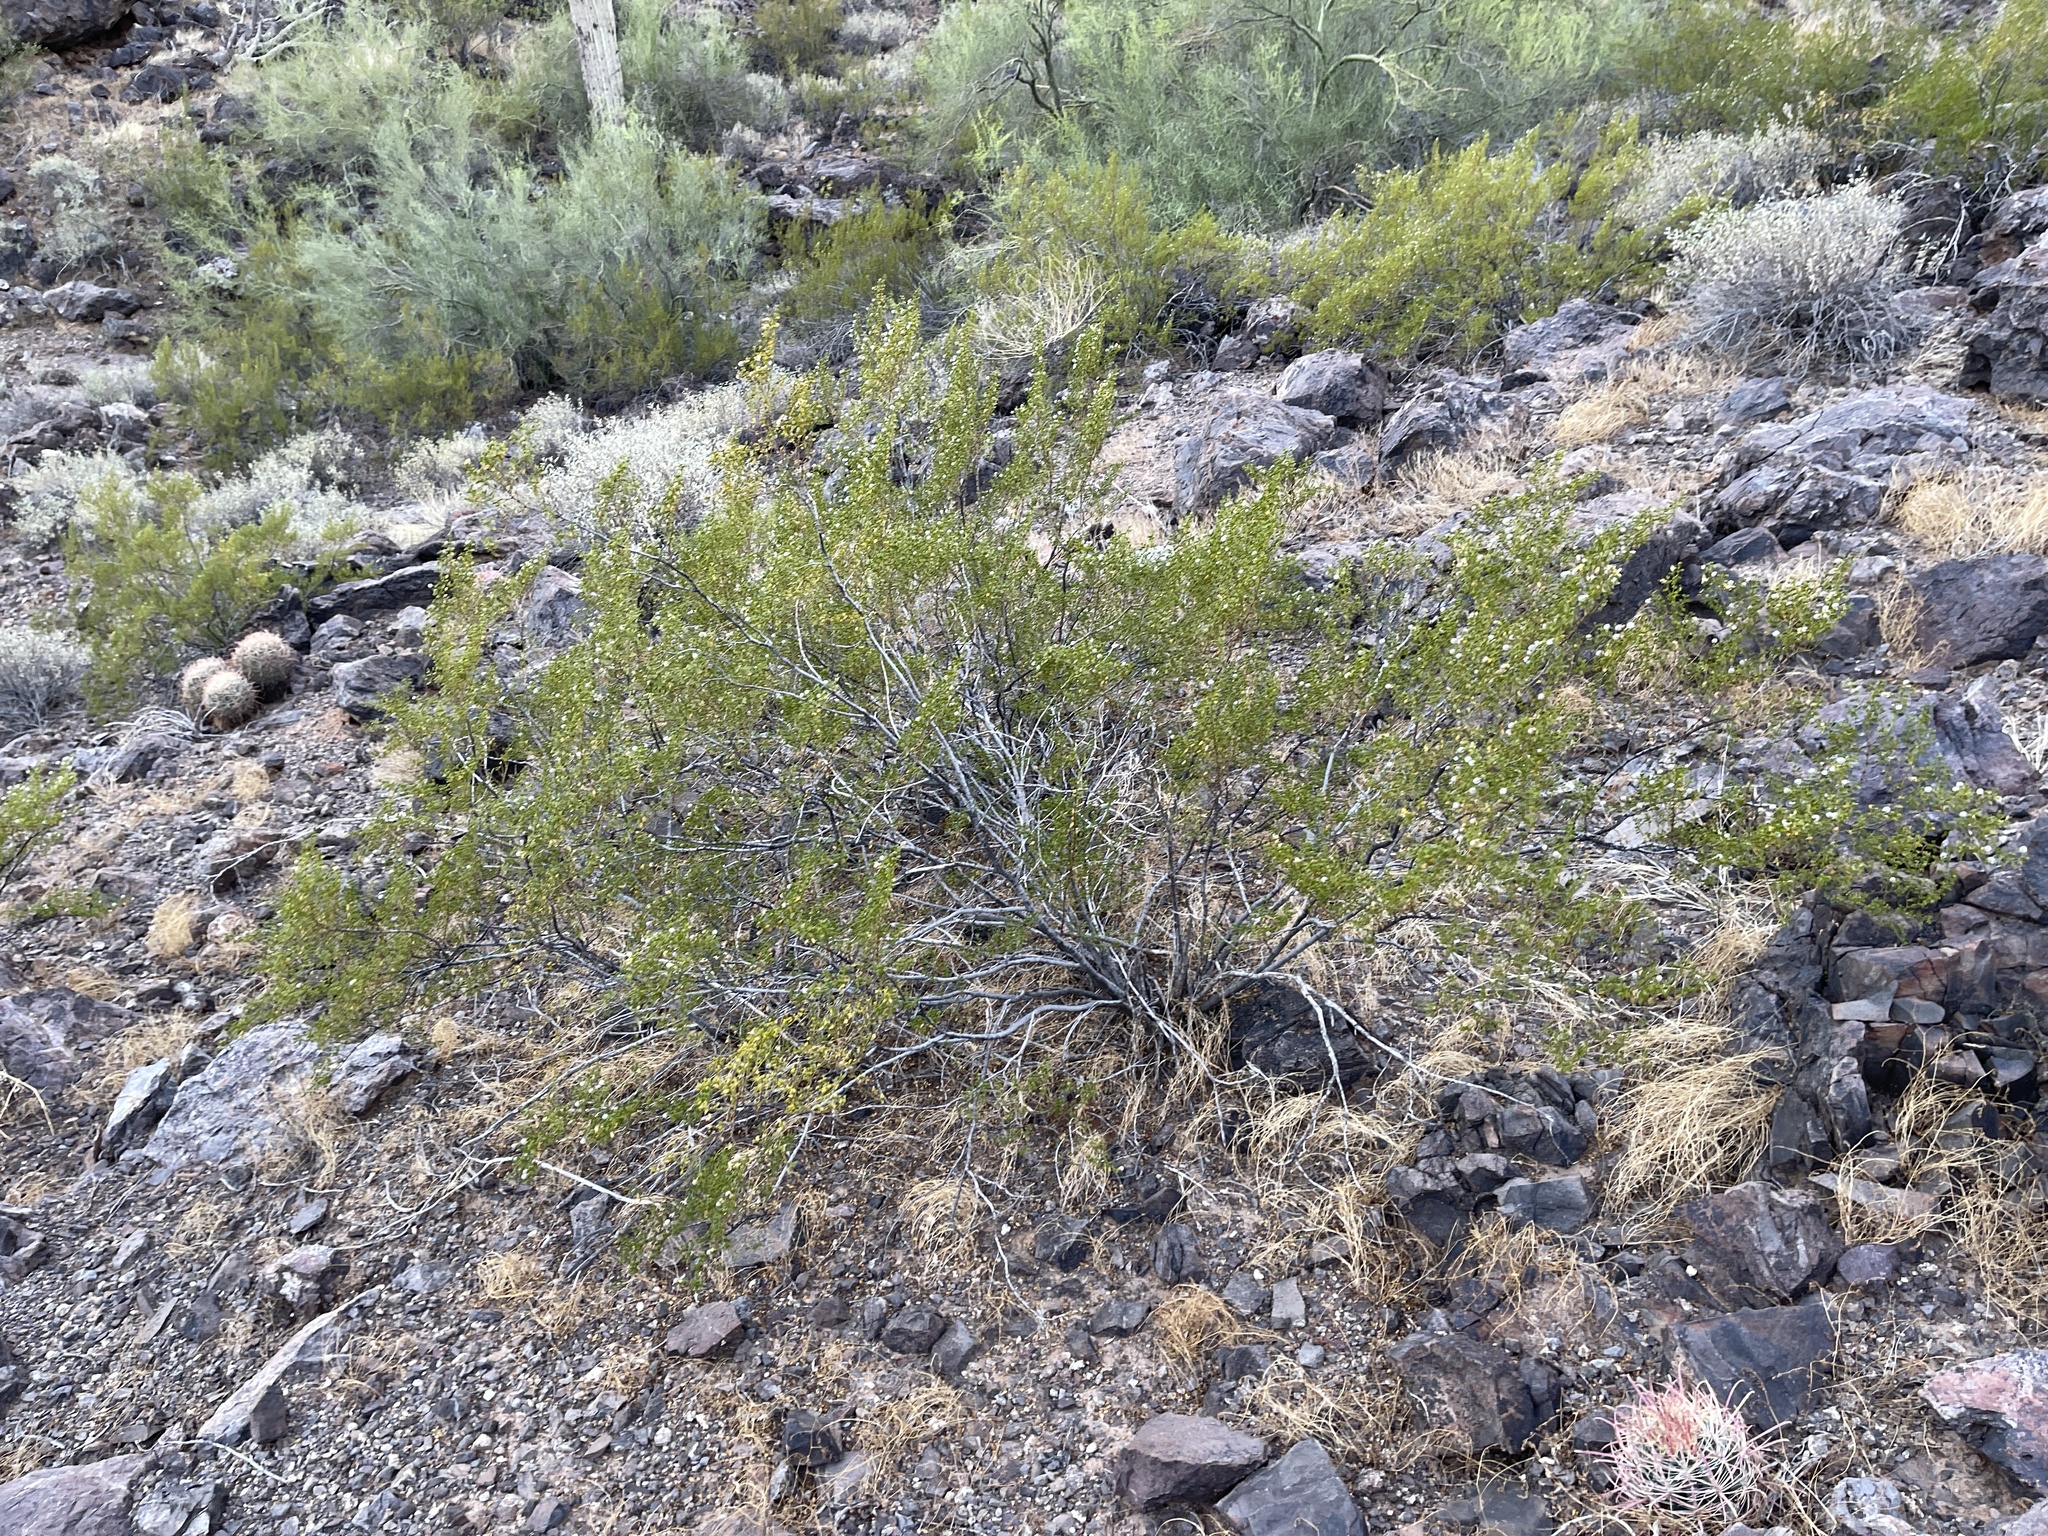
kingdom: Plantae
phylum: Tracheophyta
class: Magnoliopsida
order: Zygophyllales
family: Zygophyllaceae
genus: Larrea
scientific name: Larrea tridentata
